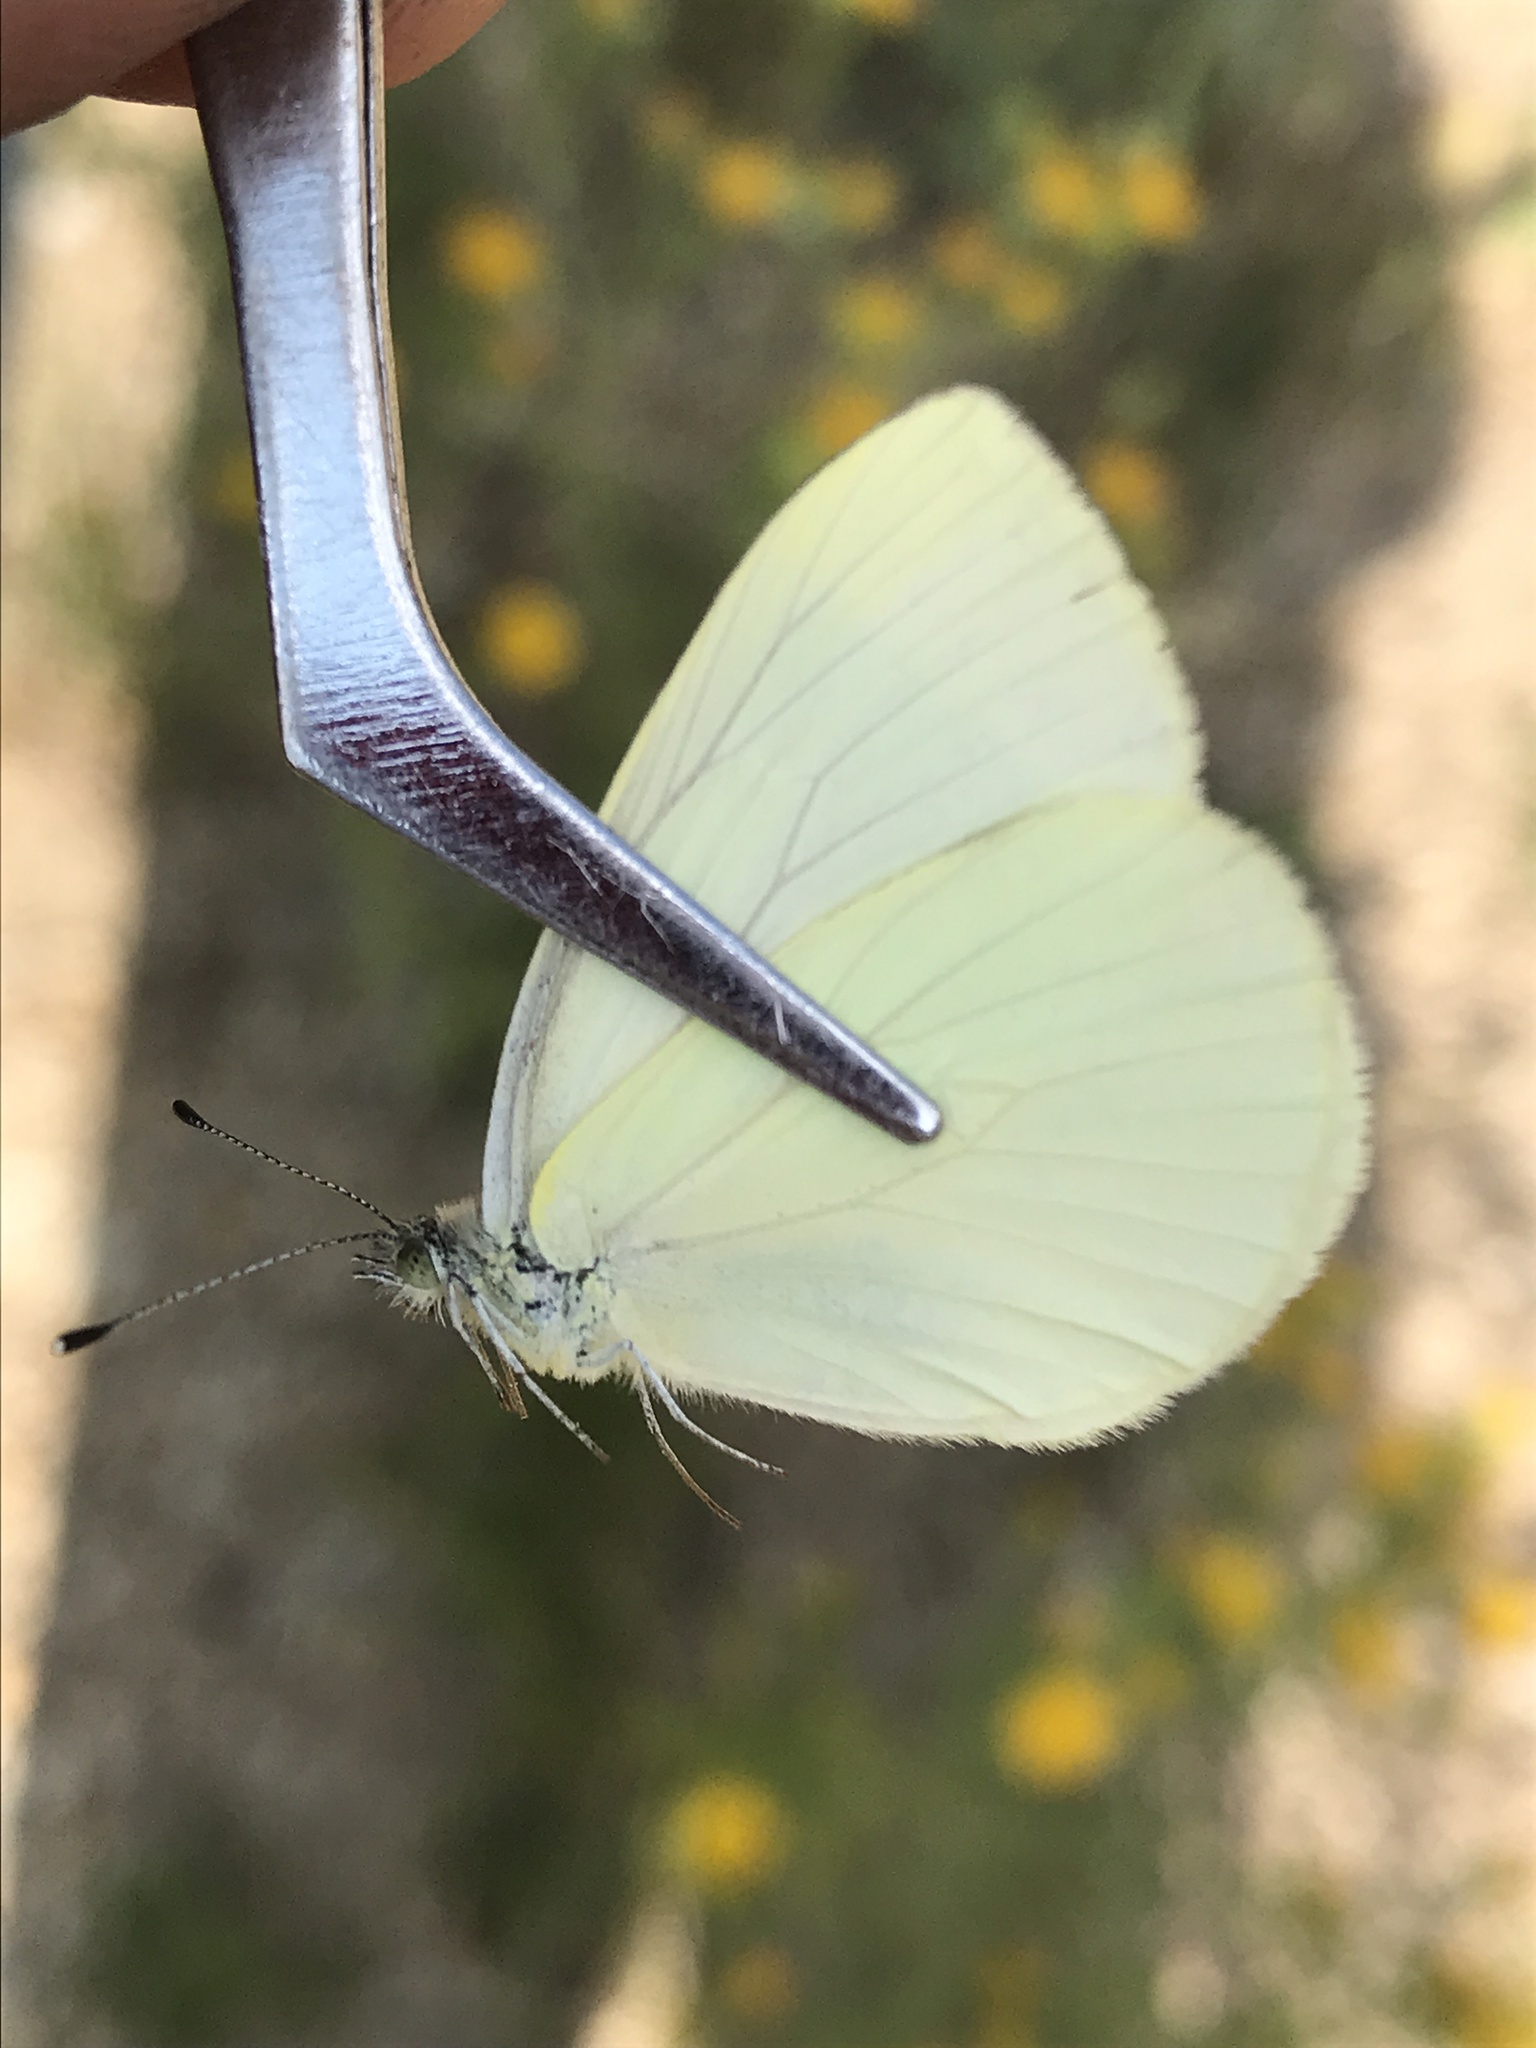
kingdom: Animalia
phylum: Arthropoda
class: Insecta
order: Lepidoptera
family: Pieridae
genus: Pieris
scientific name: Pieris marginalis
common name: Margined white
